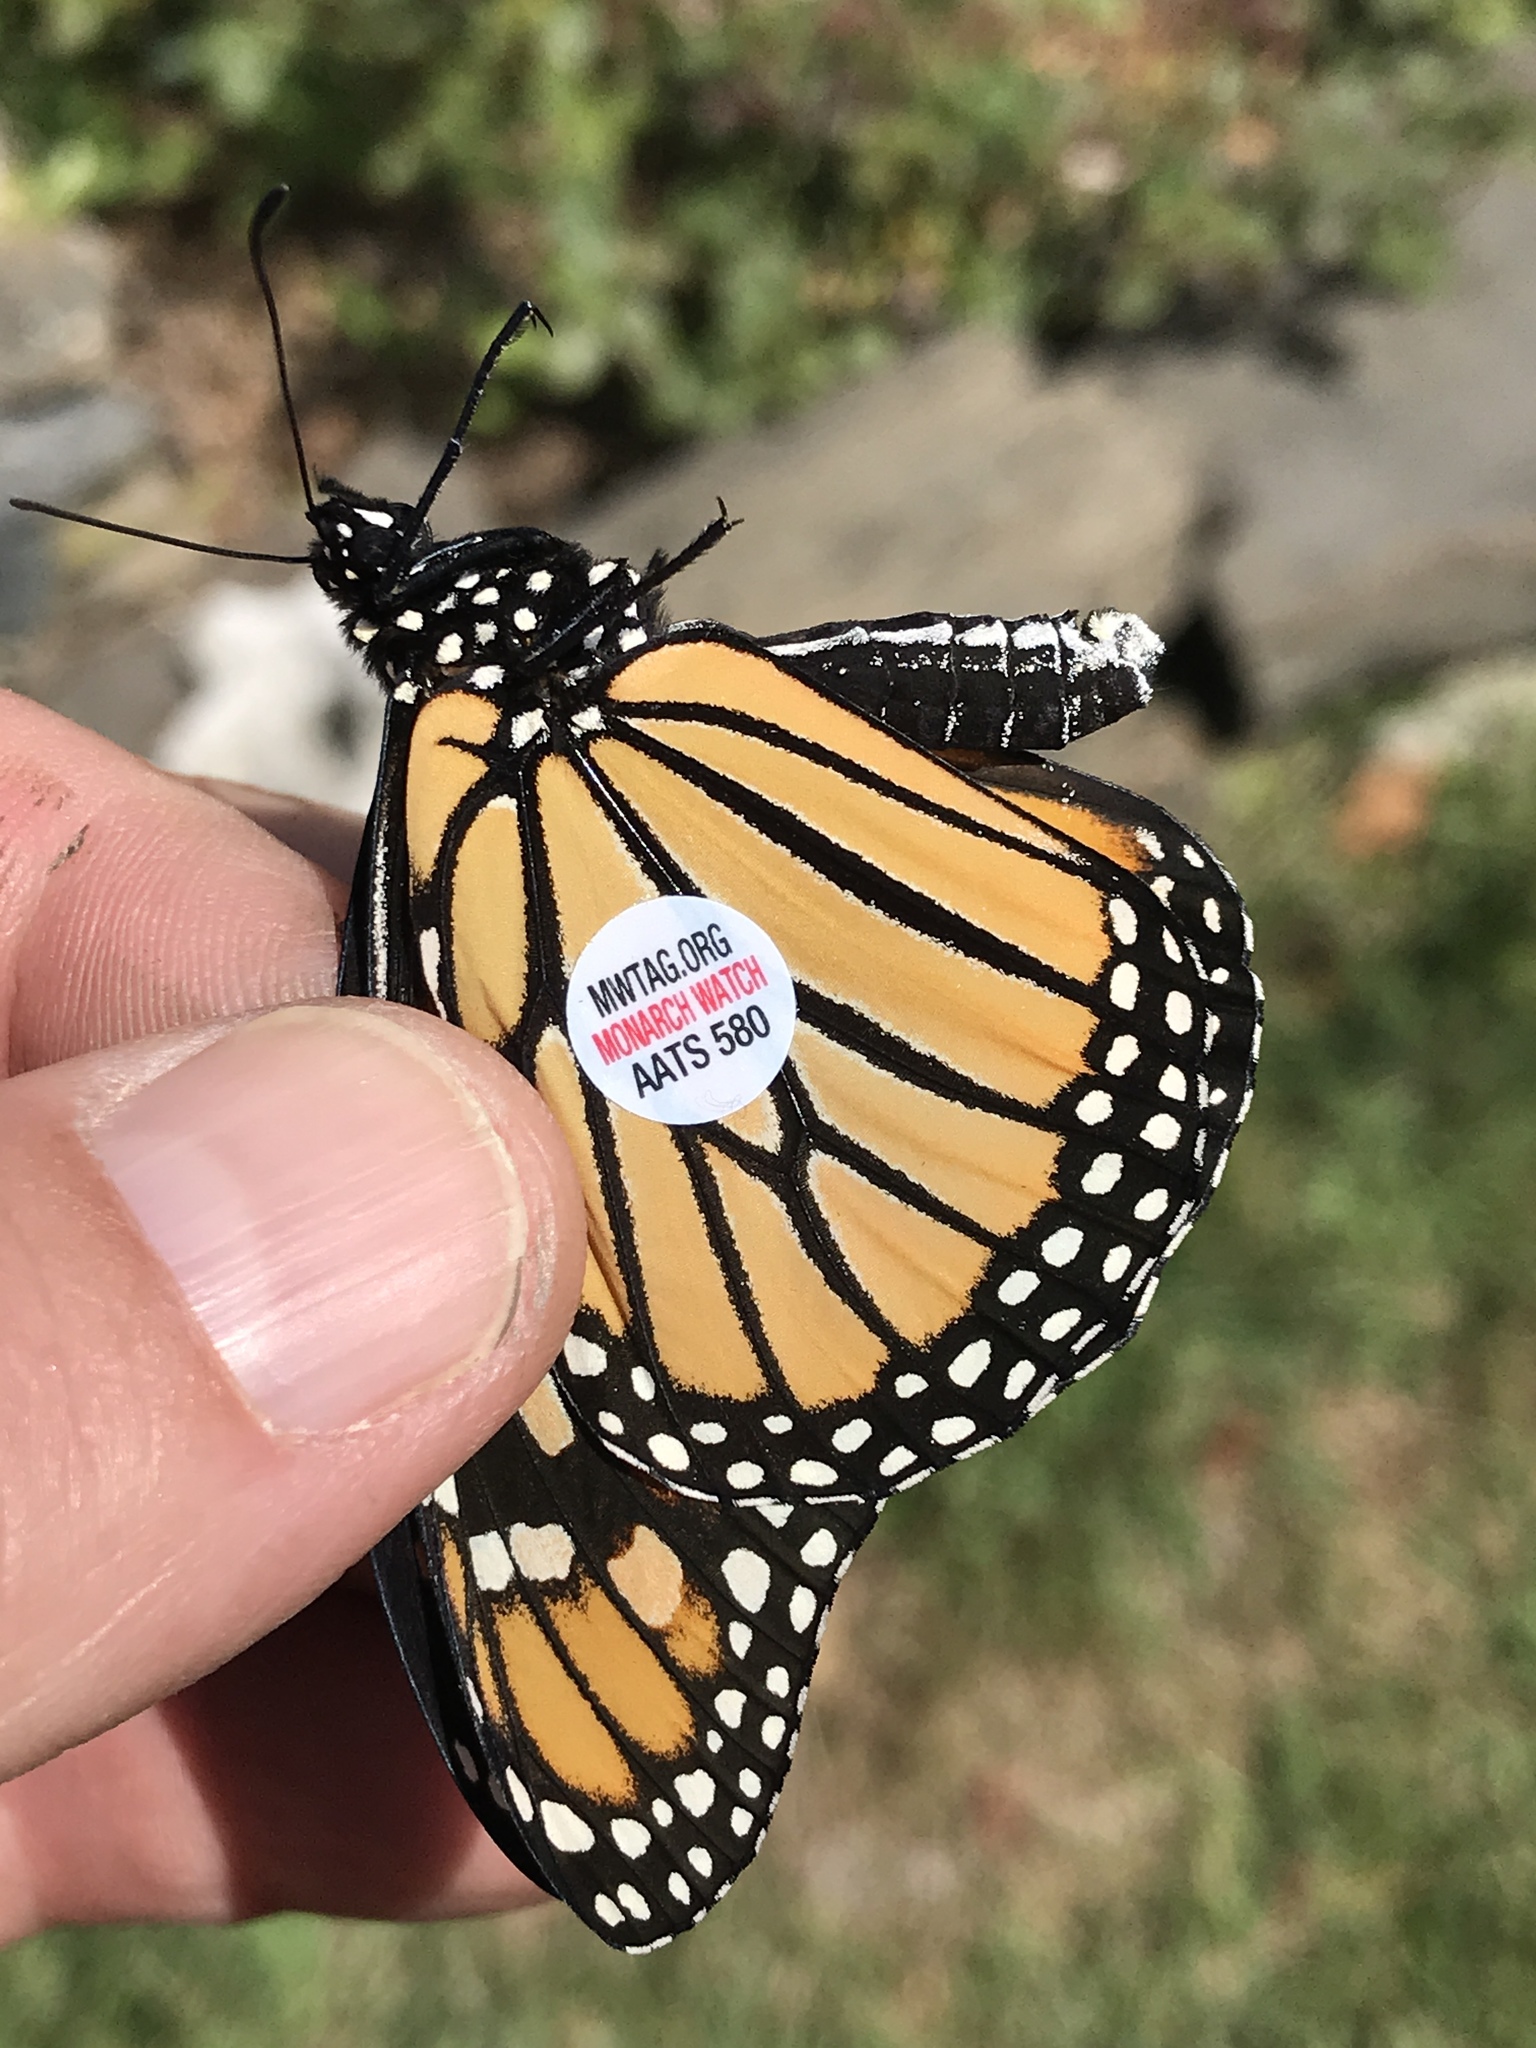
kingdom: Animalia
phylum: Arthropoda
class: Insecta
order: Lepidoptera
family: Nymphalidae
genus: Danaus
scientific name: Danaus plexippus
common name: Monarch
